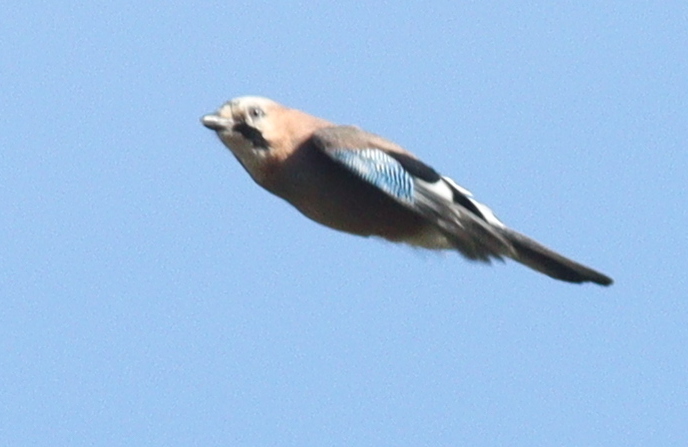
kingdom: Animalia
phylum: Chordata
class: Aves
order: Passeriformes
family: Corvidae
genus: Garrulus
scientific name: Garrulus glandarius
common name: Eurasian jay
